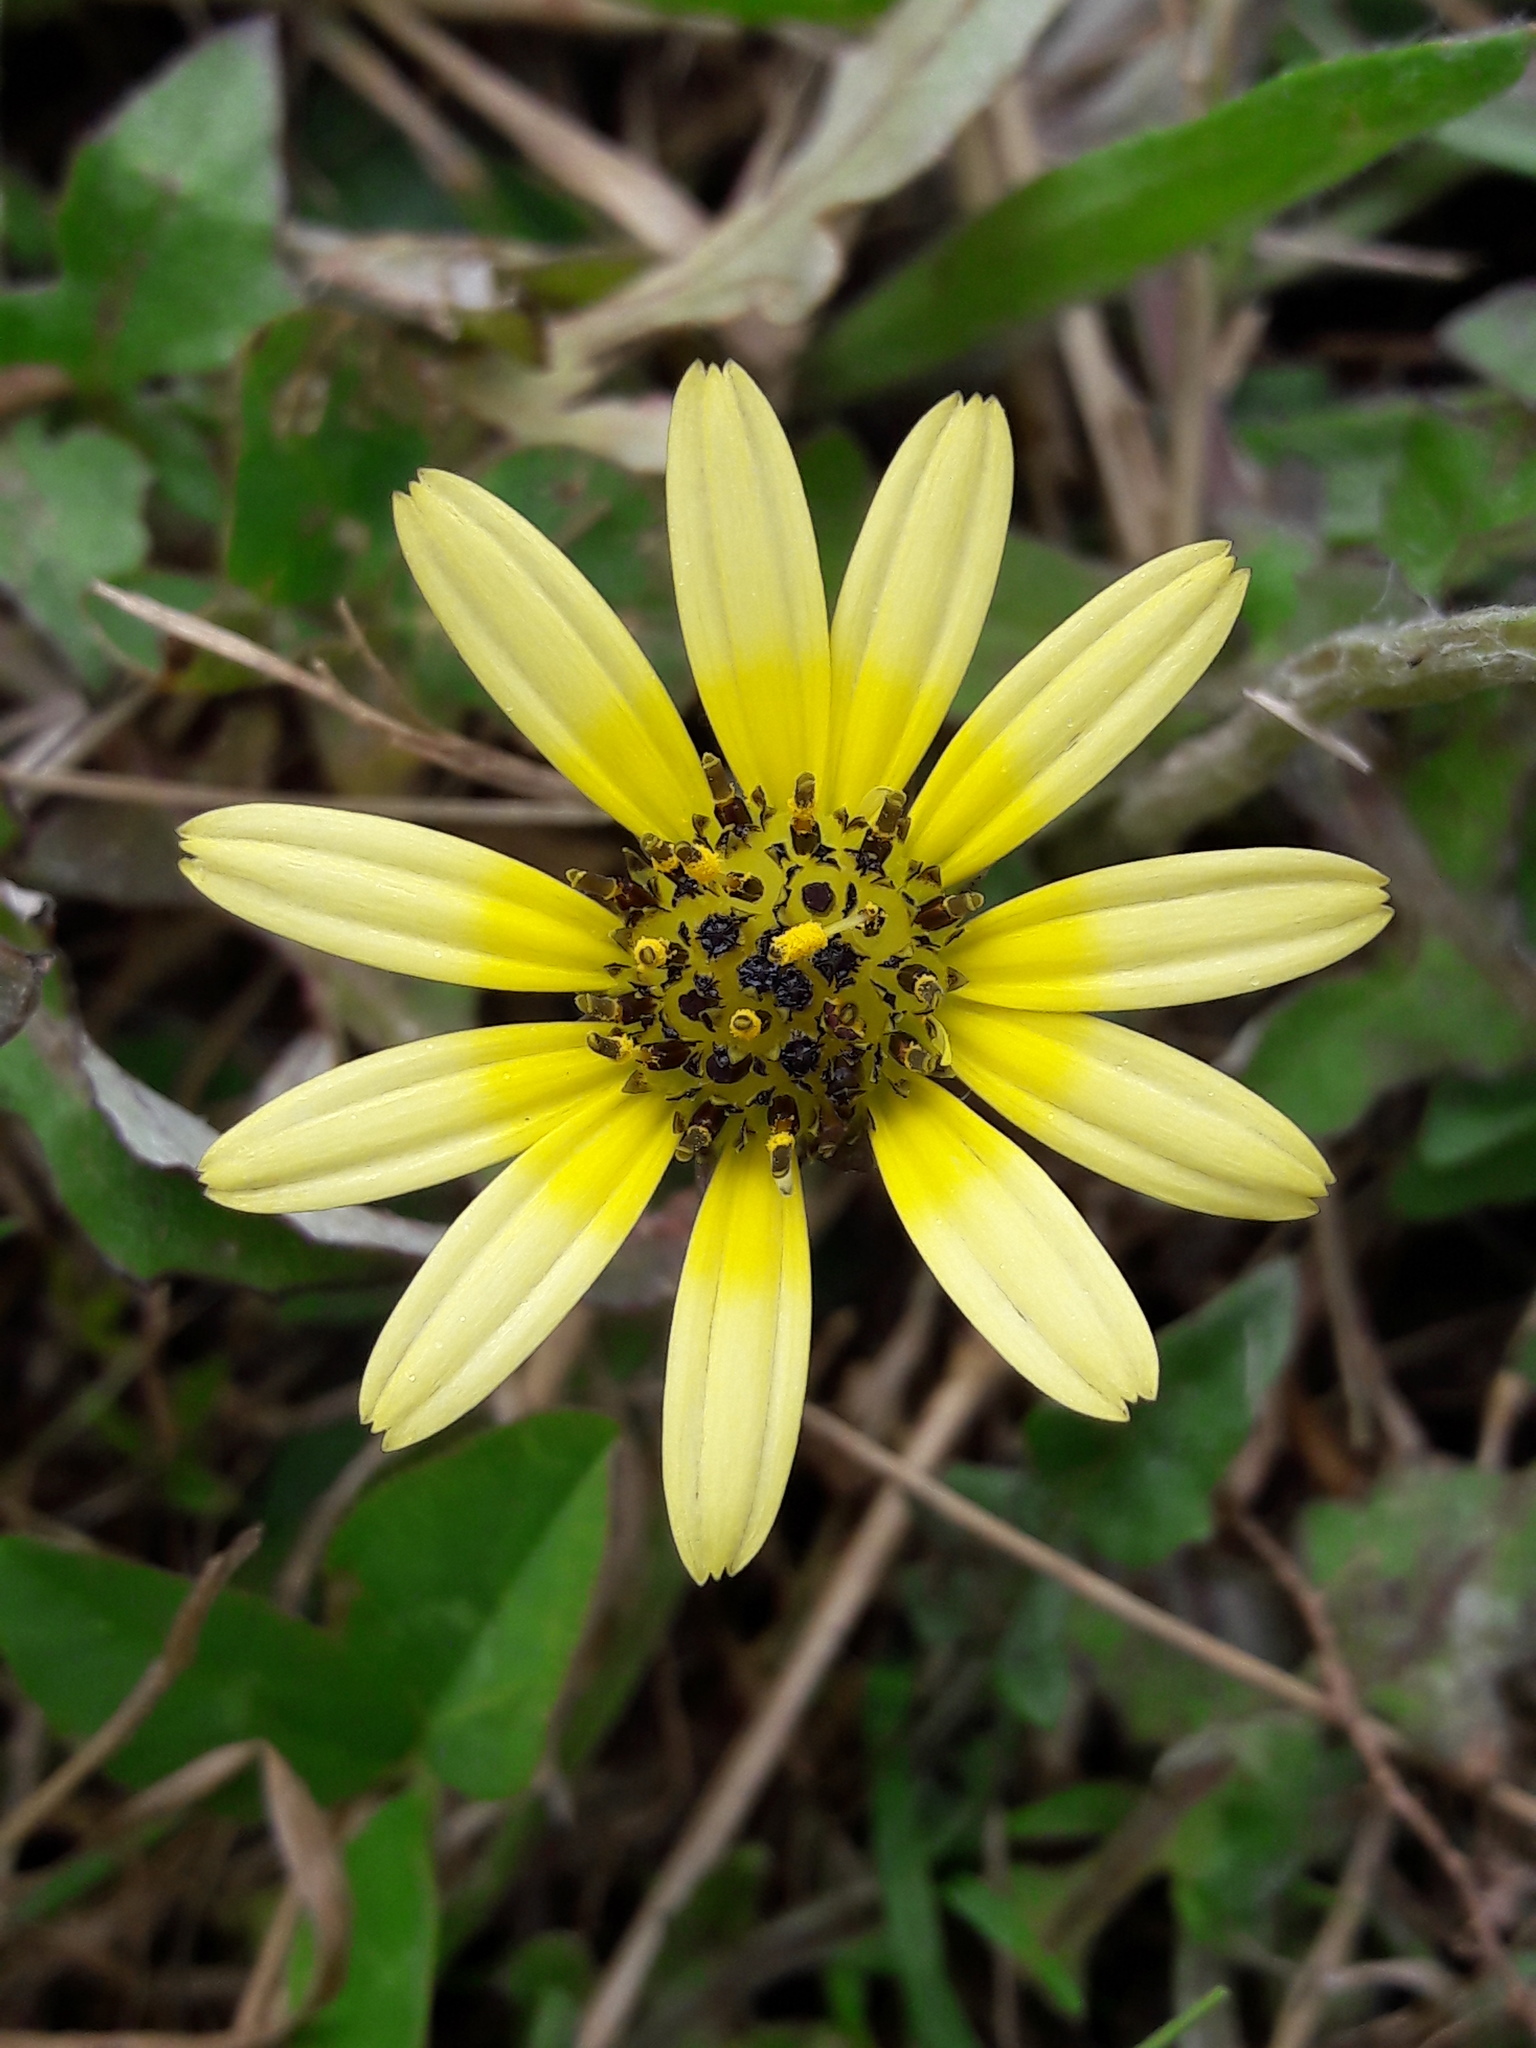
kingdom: Plantae
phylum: Tracheophyta
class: Magnoliopsida
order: Asterales
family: Asteraceae
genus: Arctotheca
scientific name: Arctotheca calendula
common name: Capeweed
